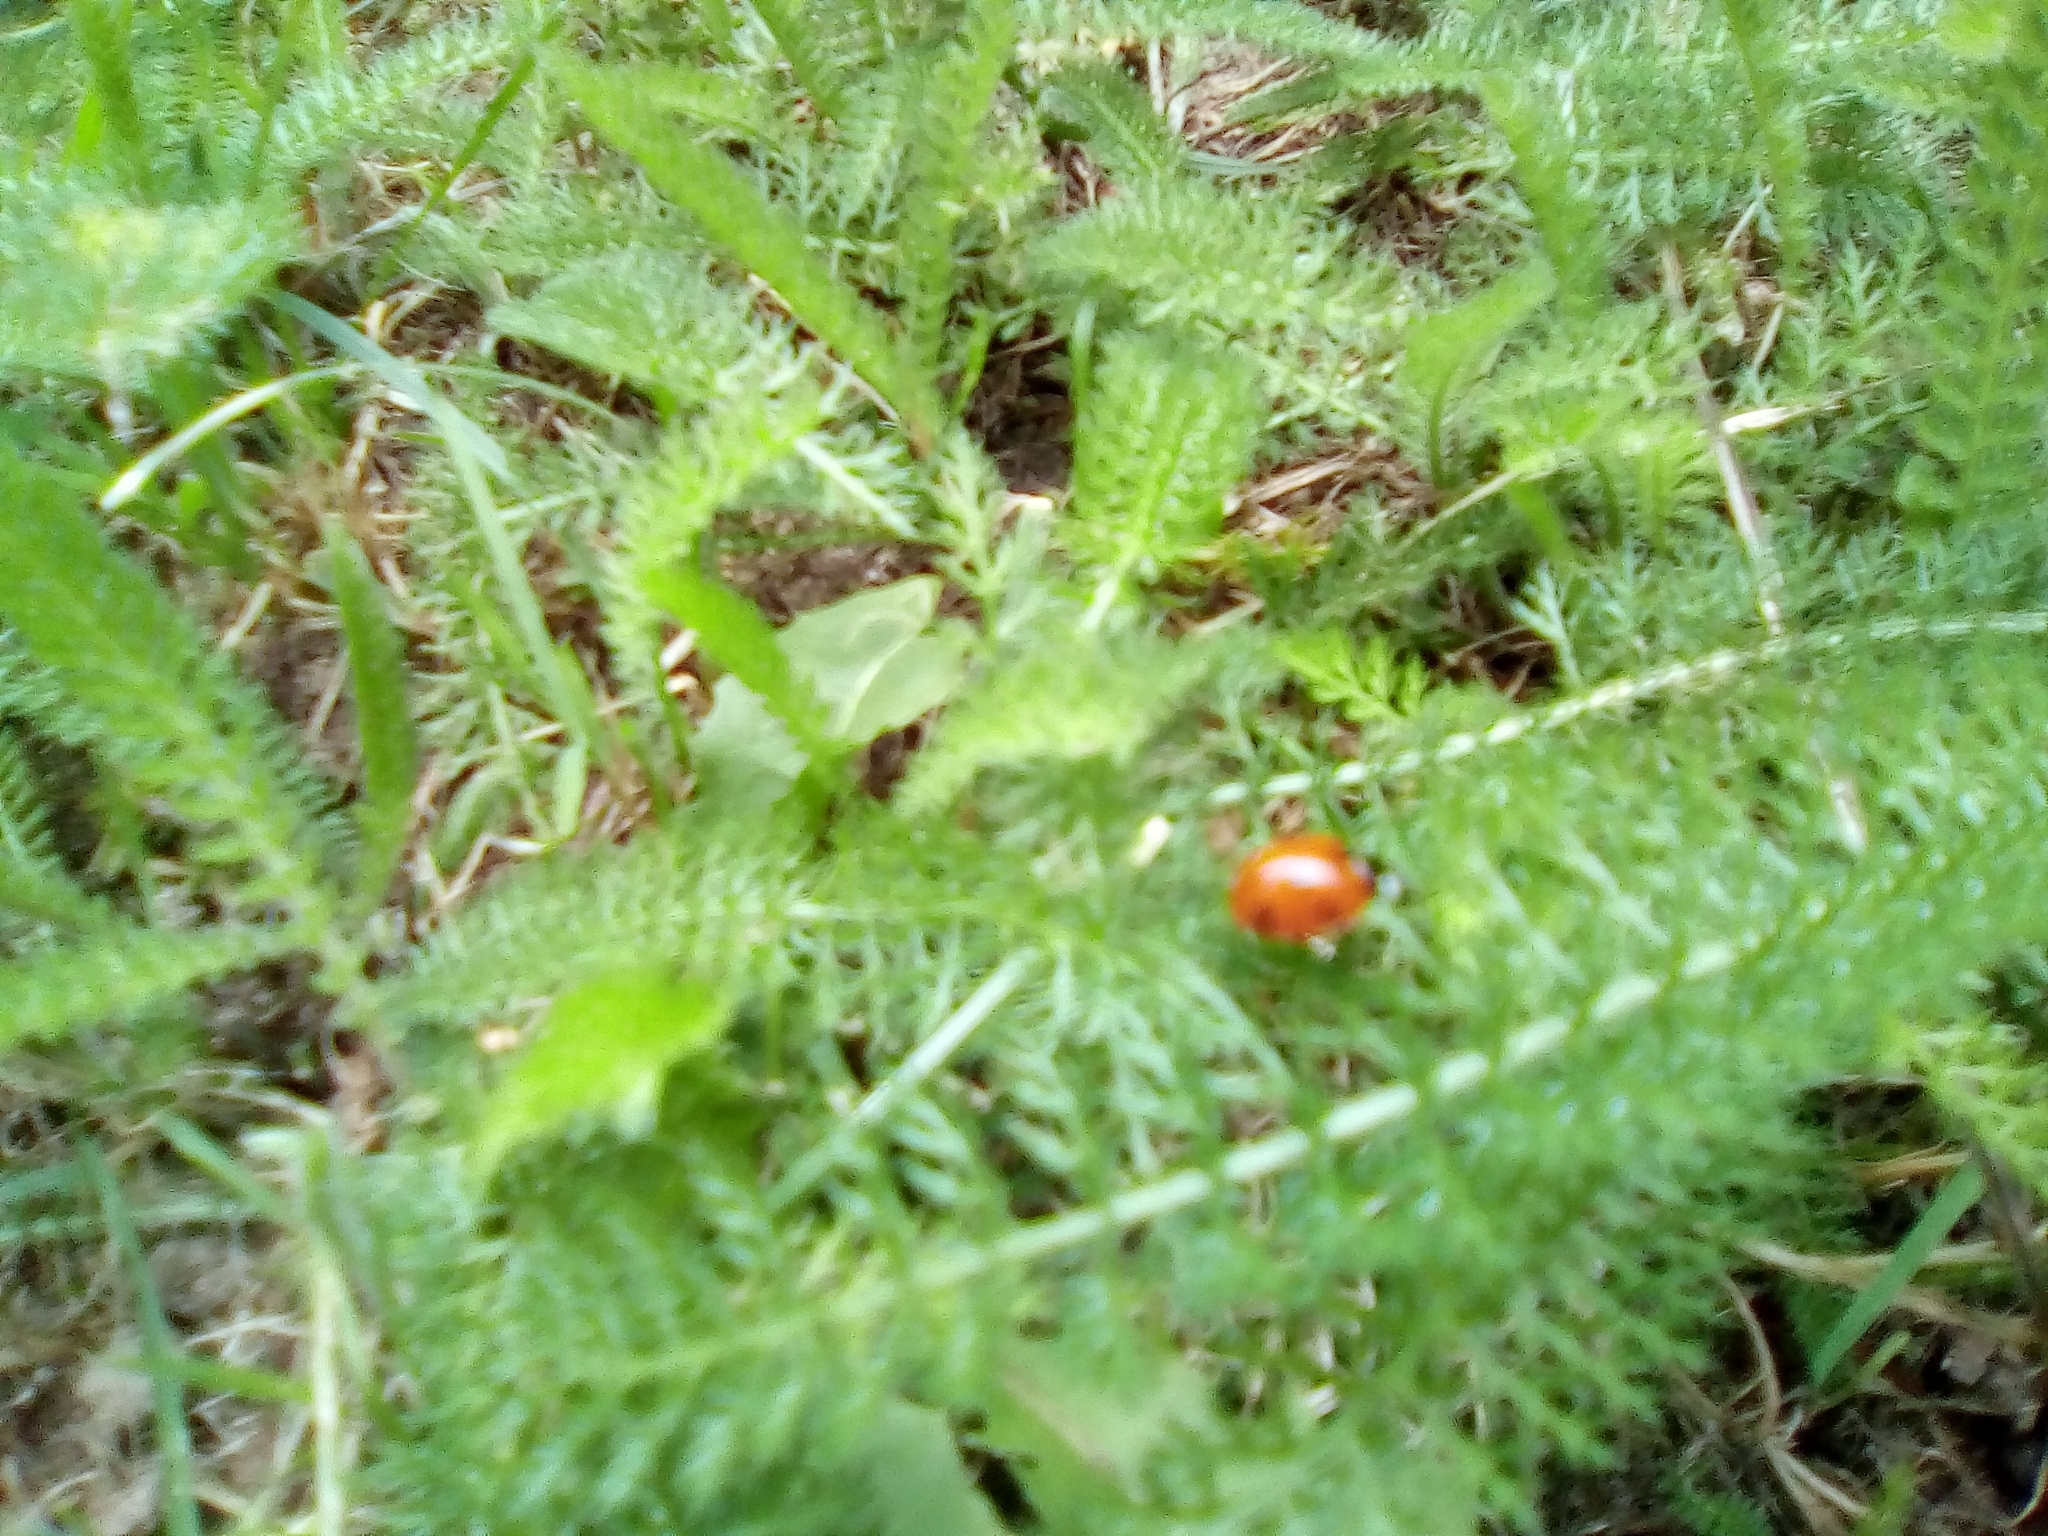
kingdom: Animalia
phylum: Arthropoda
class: Insecta
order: Coleoptera
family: Coccinellidae
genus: Coccinella
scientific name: Coccinella septempunctata
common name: Sevenspotted lady beetle
